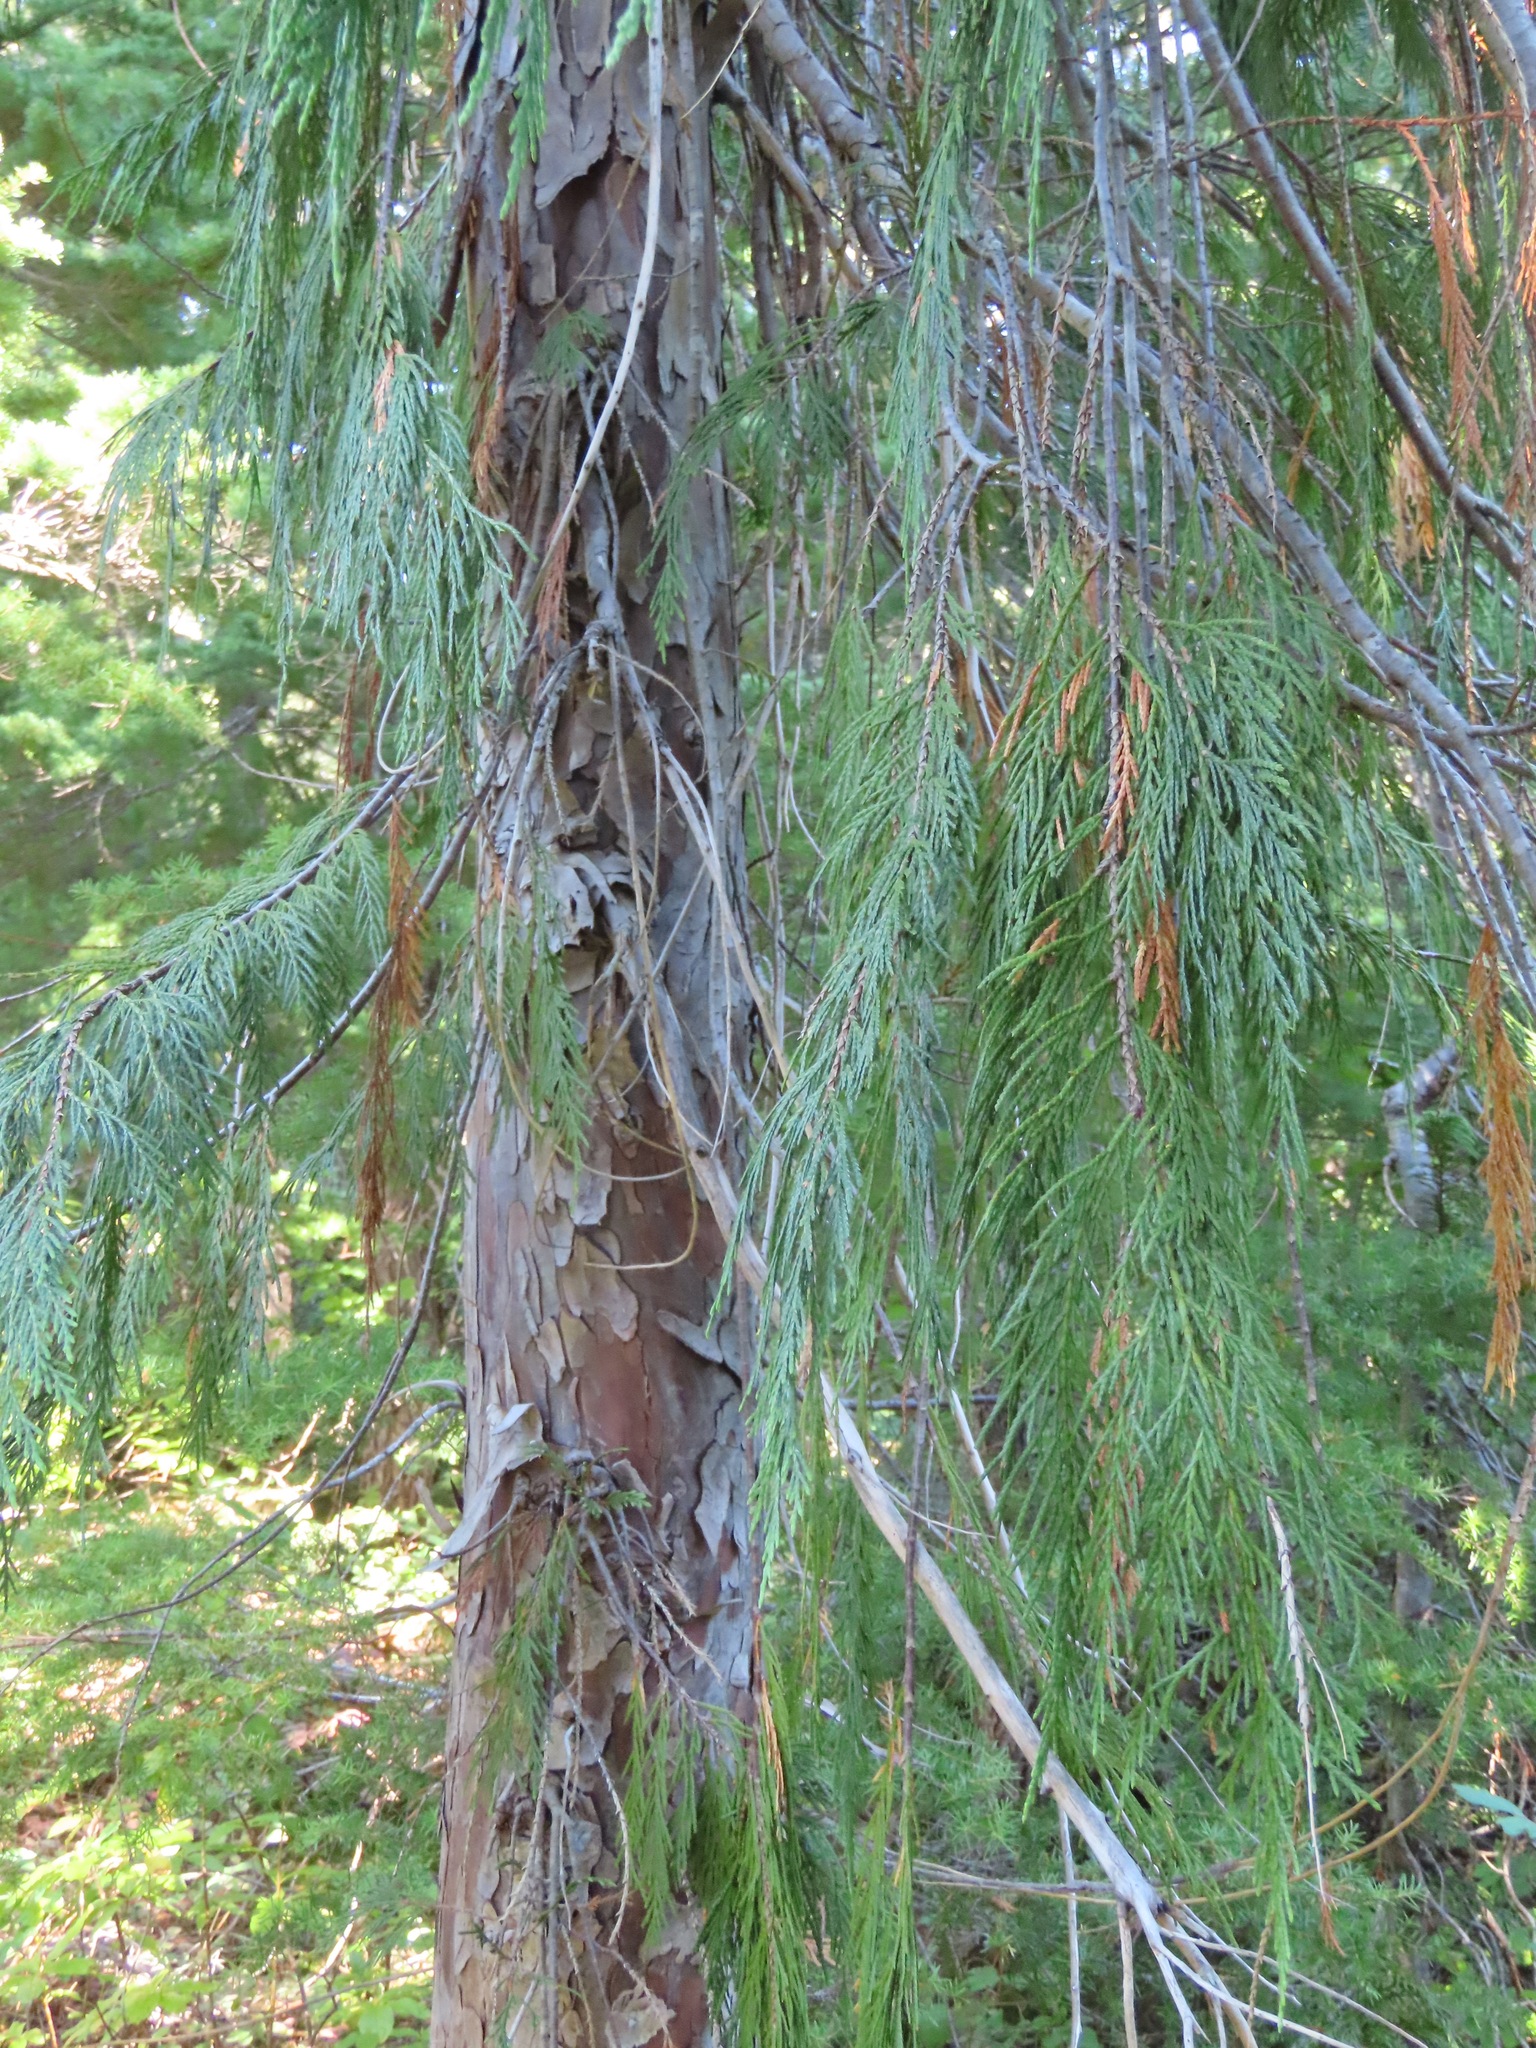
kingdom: Plantae
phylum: Tracheophyta
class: Pinopsida
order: Pinales
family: Cupressaceae
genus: Xanthocyparis
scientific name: Xanthocyparis nootkatensis
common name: Nootka cypress
